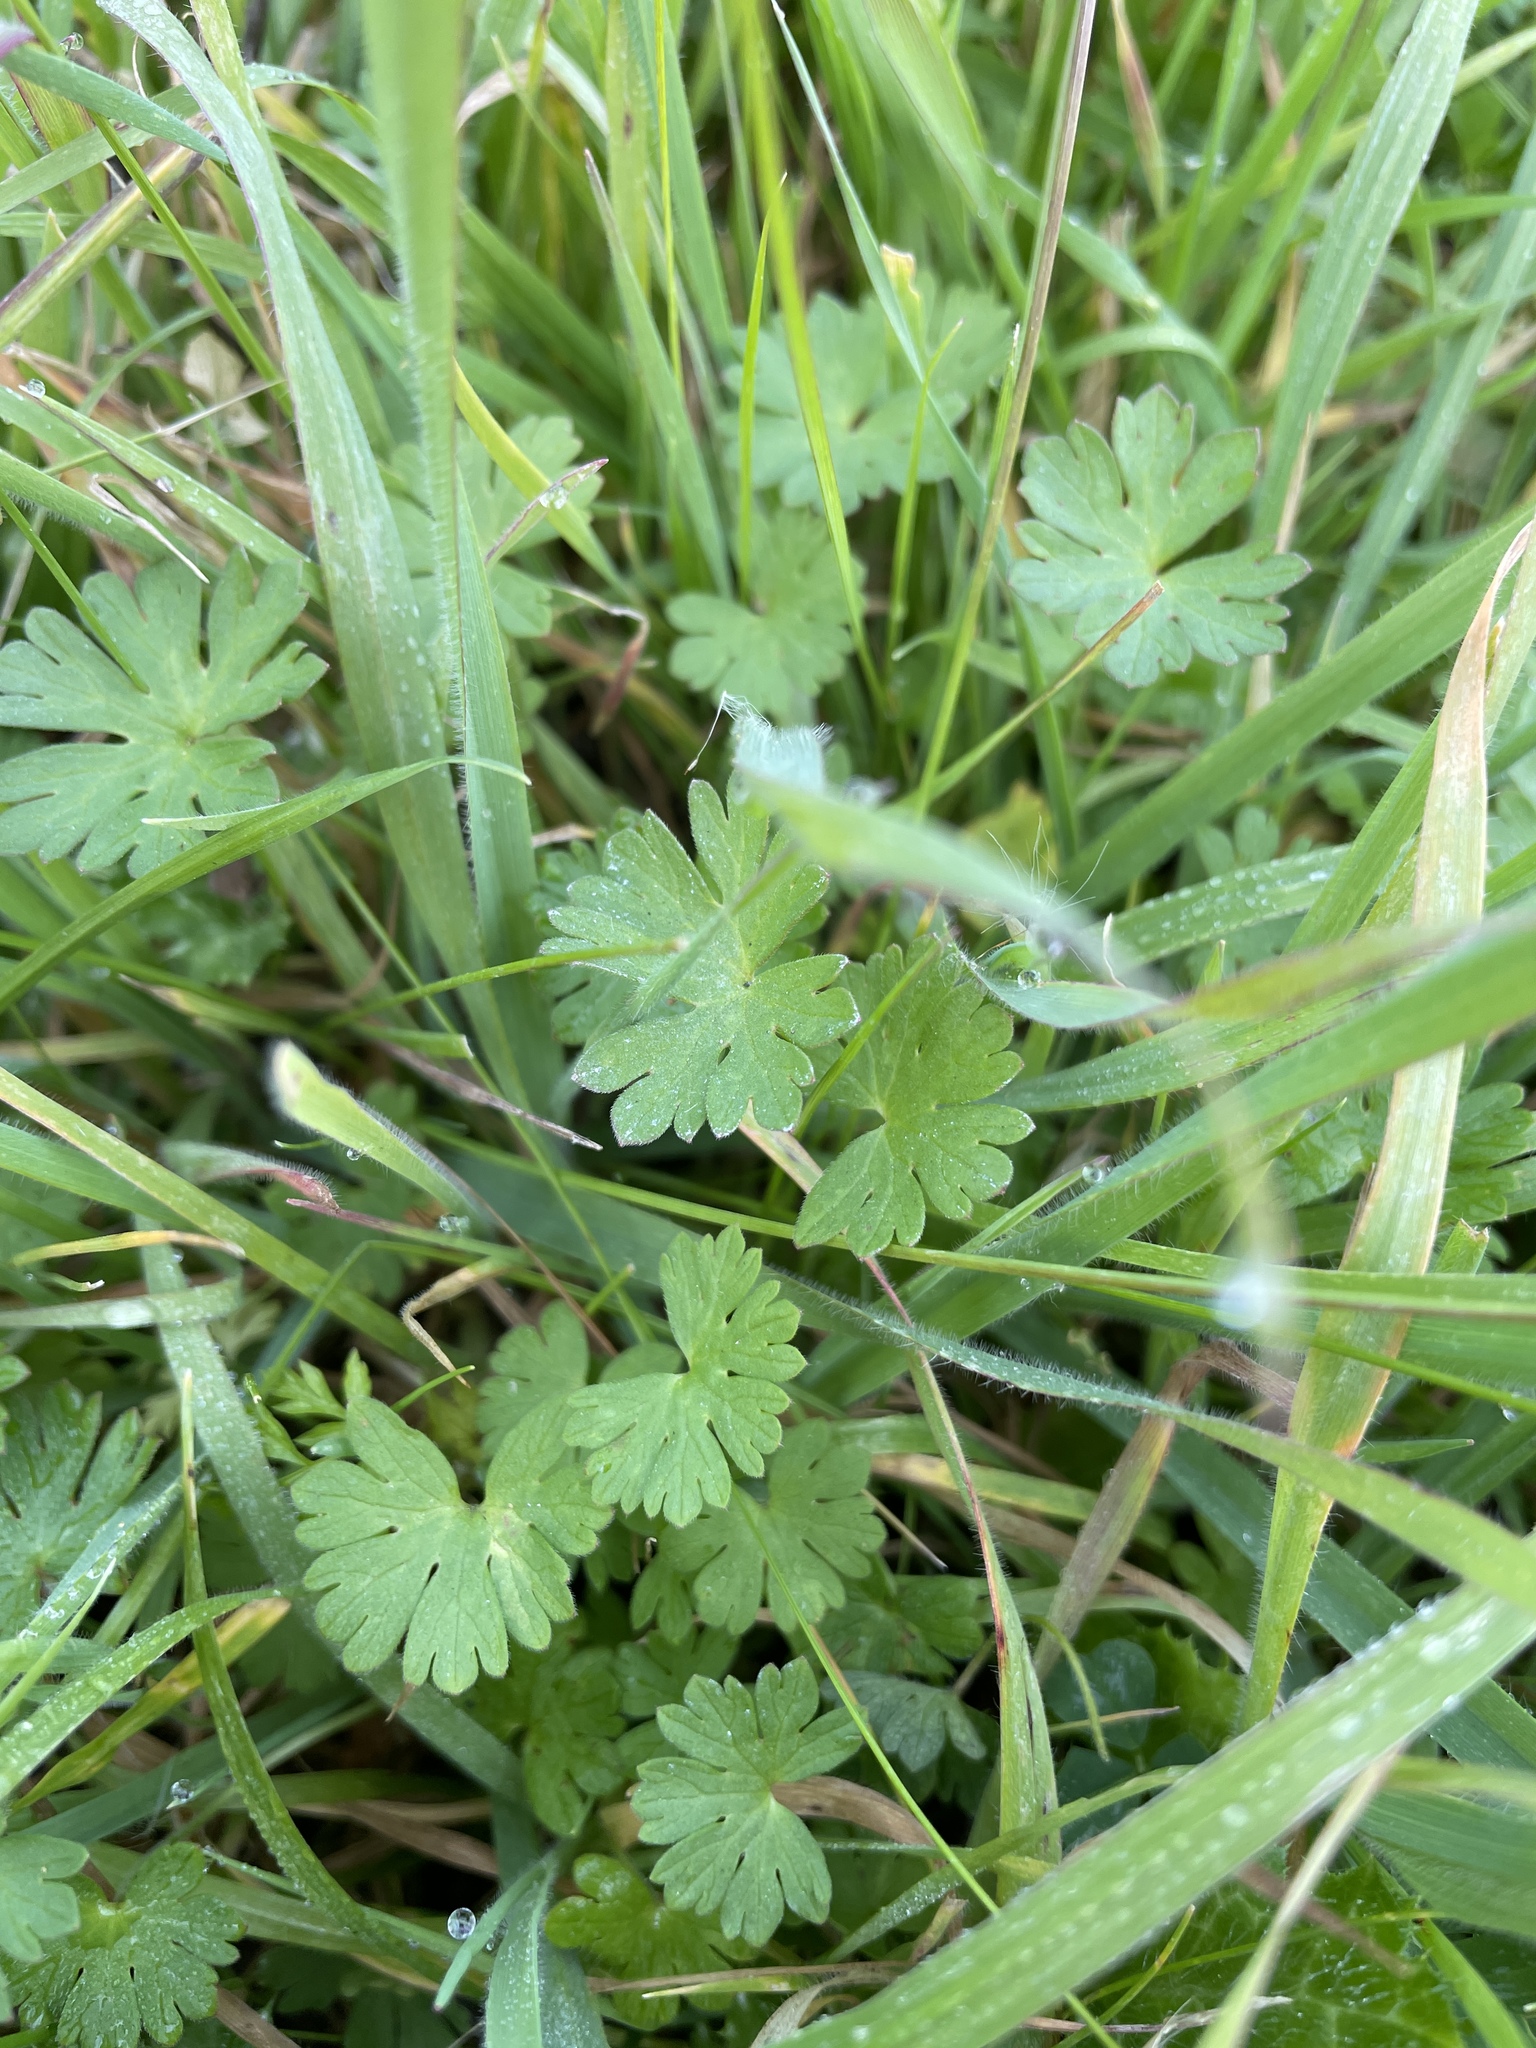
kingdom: Plantae
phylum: Tracheophyta
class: Magnoliopsida
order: Geraniales
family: Geraniaceae
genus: Geranium
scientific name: Geranium
